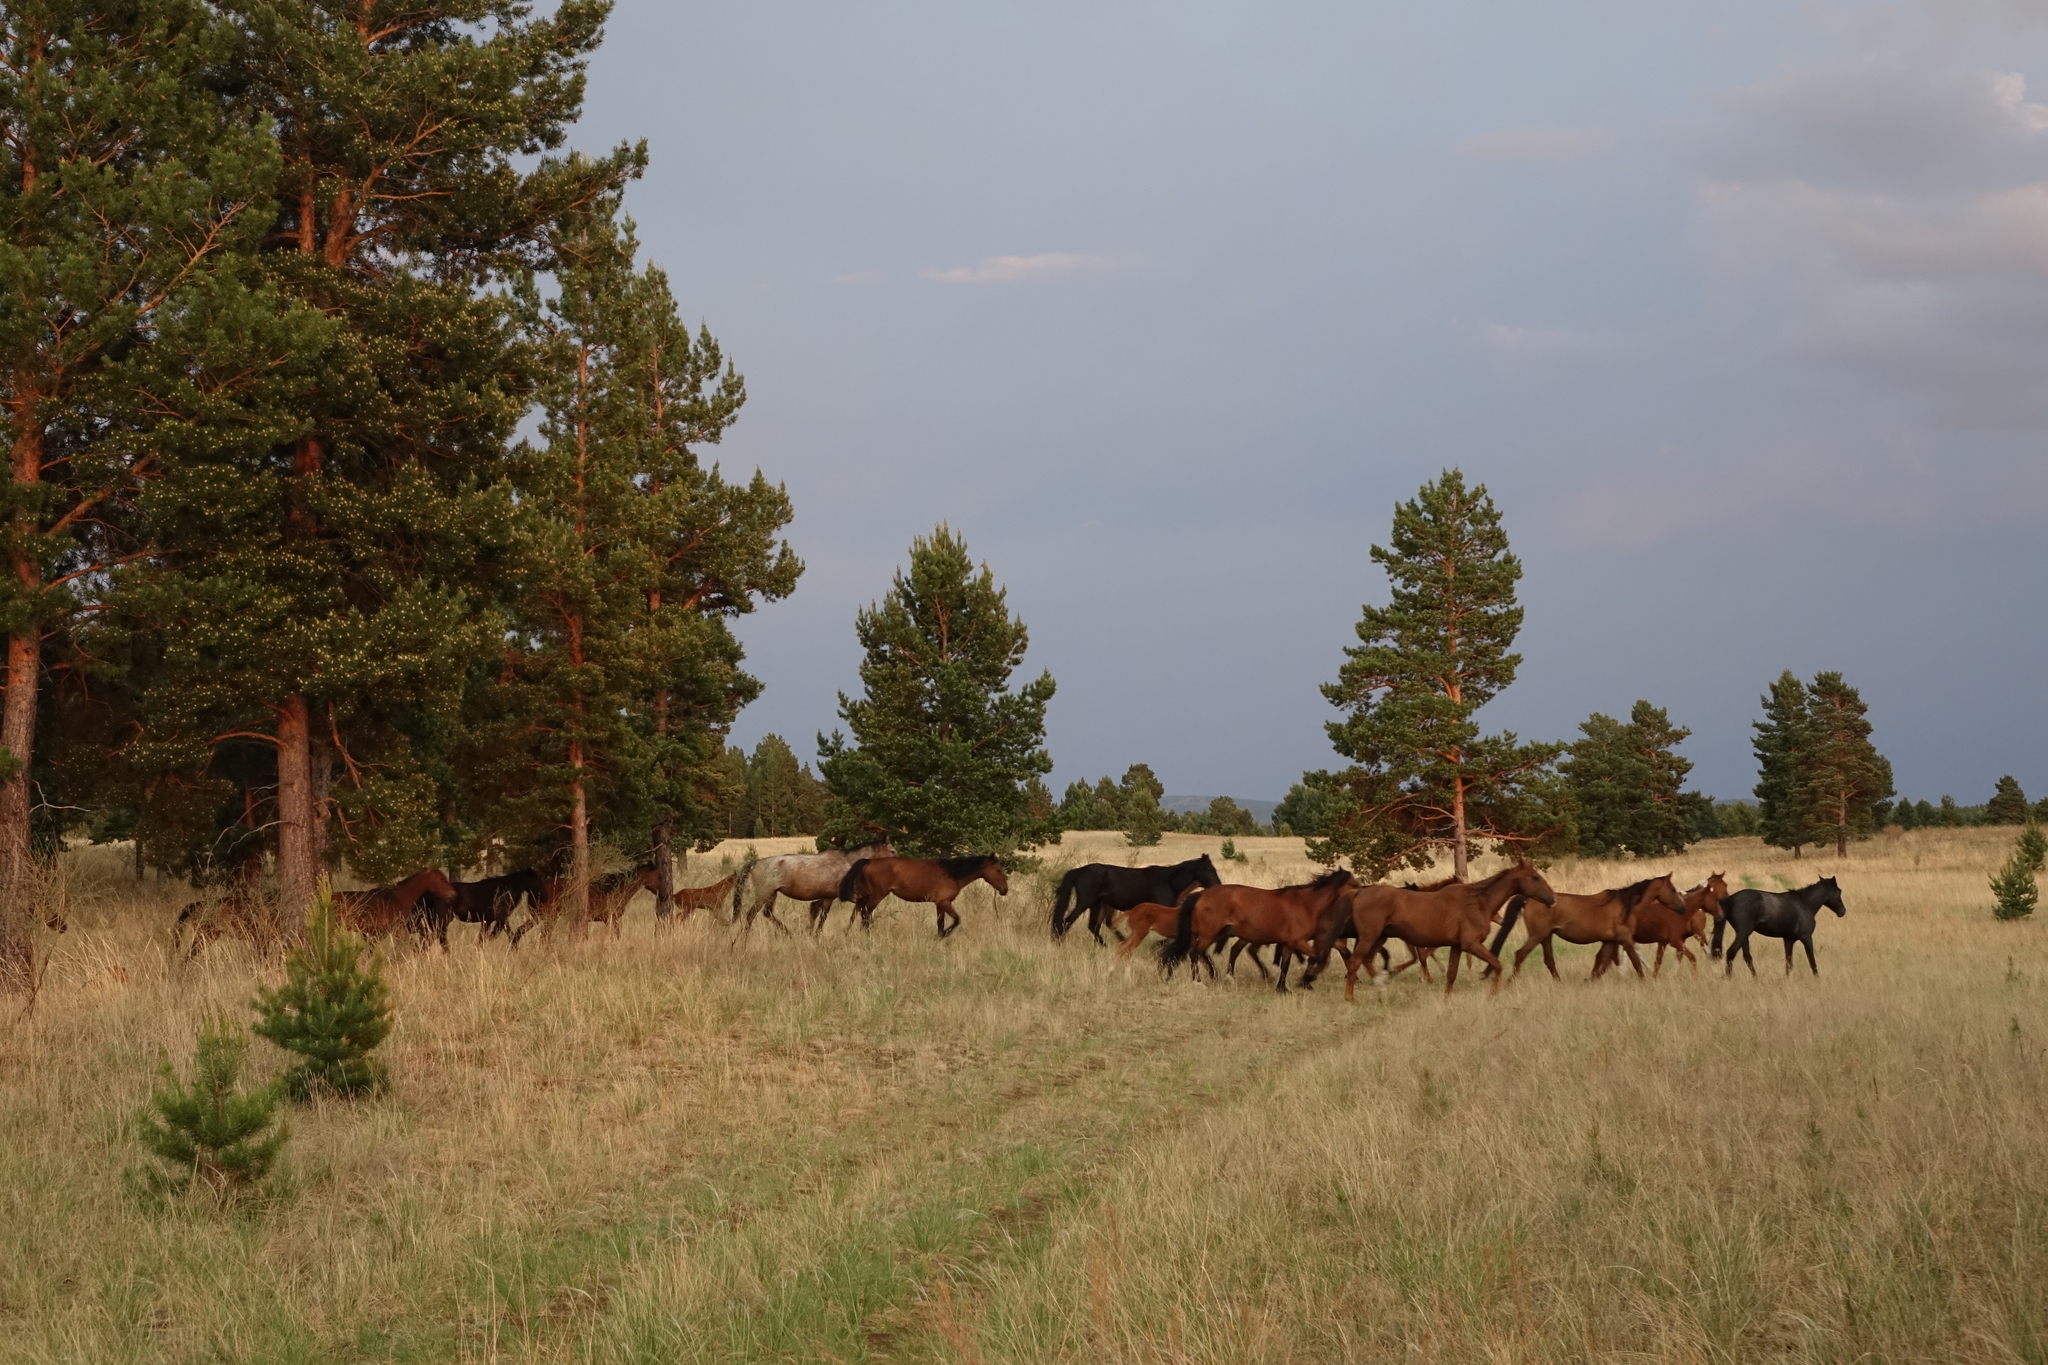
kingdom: Plantae
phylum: Tracheophyta
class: Pinopsida
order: Pinales
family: Pinaceae
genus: Pinus
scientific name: Pinus sylvestris
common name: Scots pine
